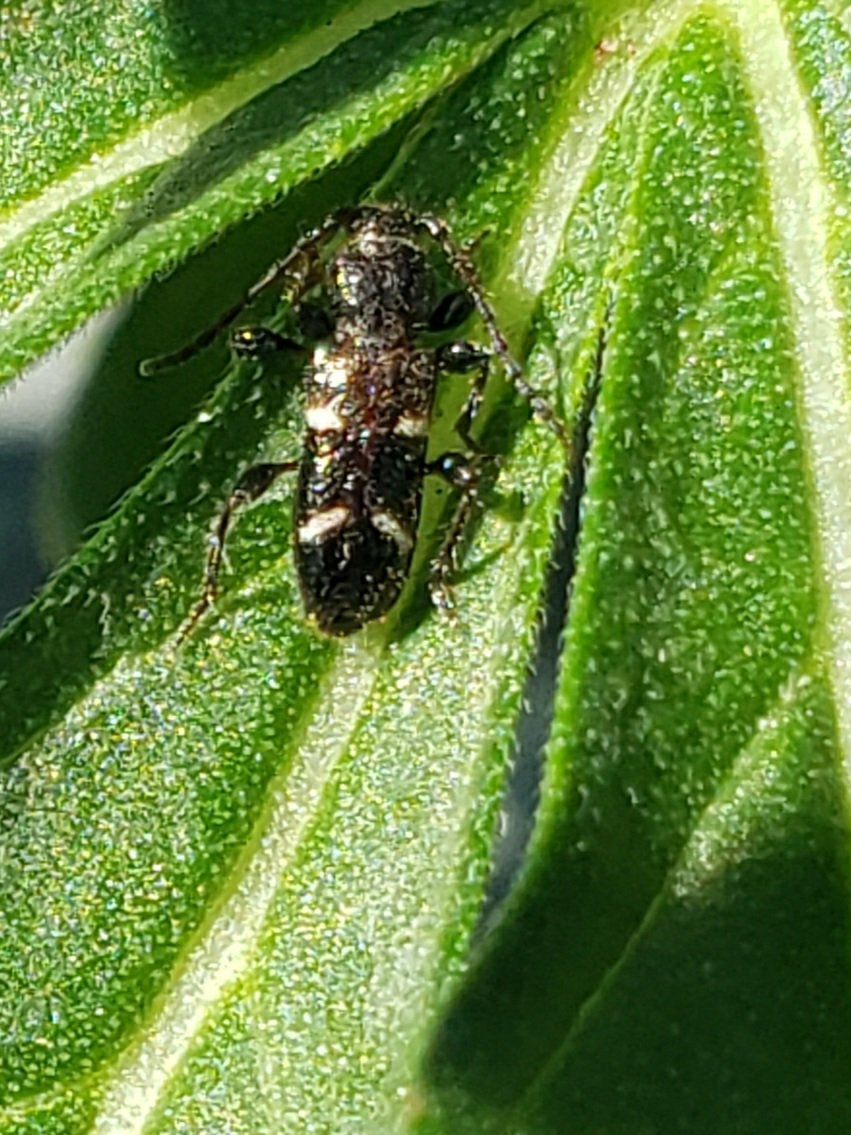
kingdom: Animalia
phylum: Arthropoda
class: Insecta
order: Coleoptera
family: Cerambycidae
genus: Phymatodes
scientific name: Phymatodes nitidus
